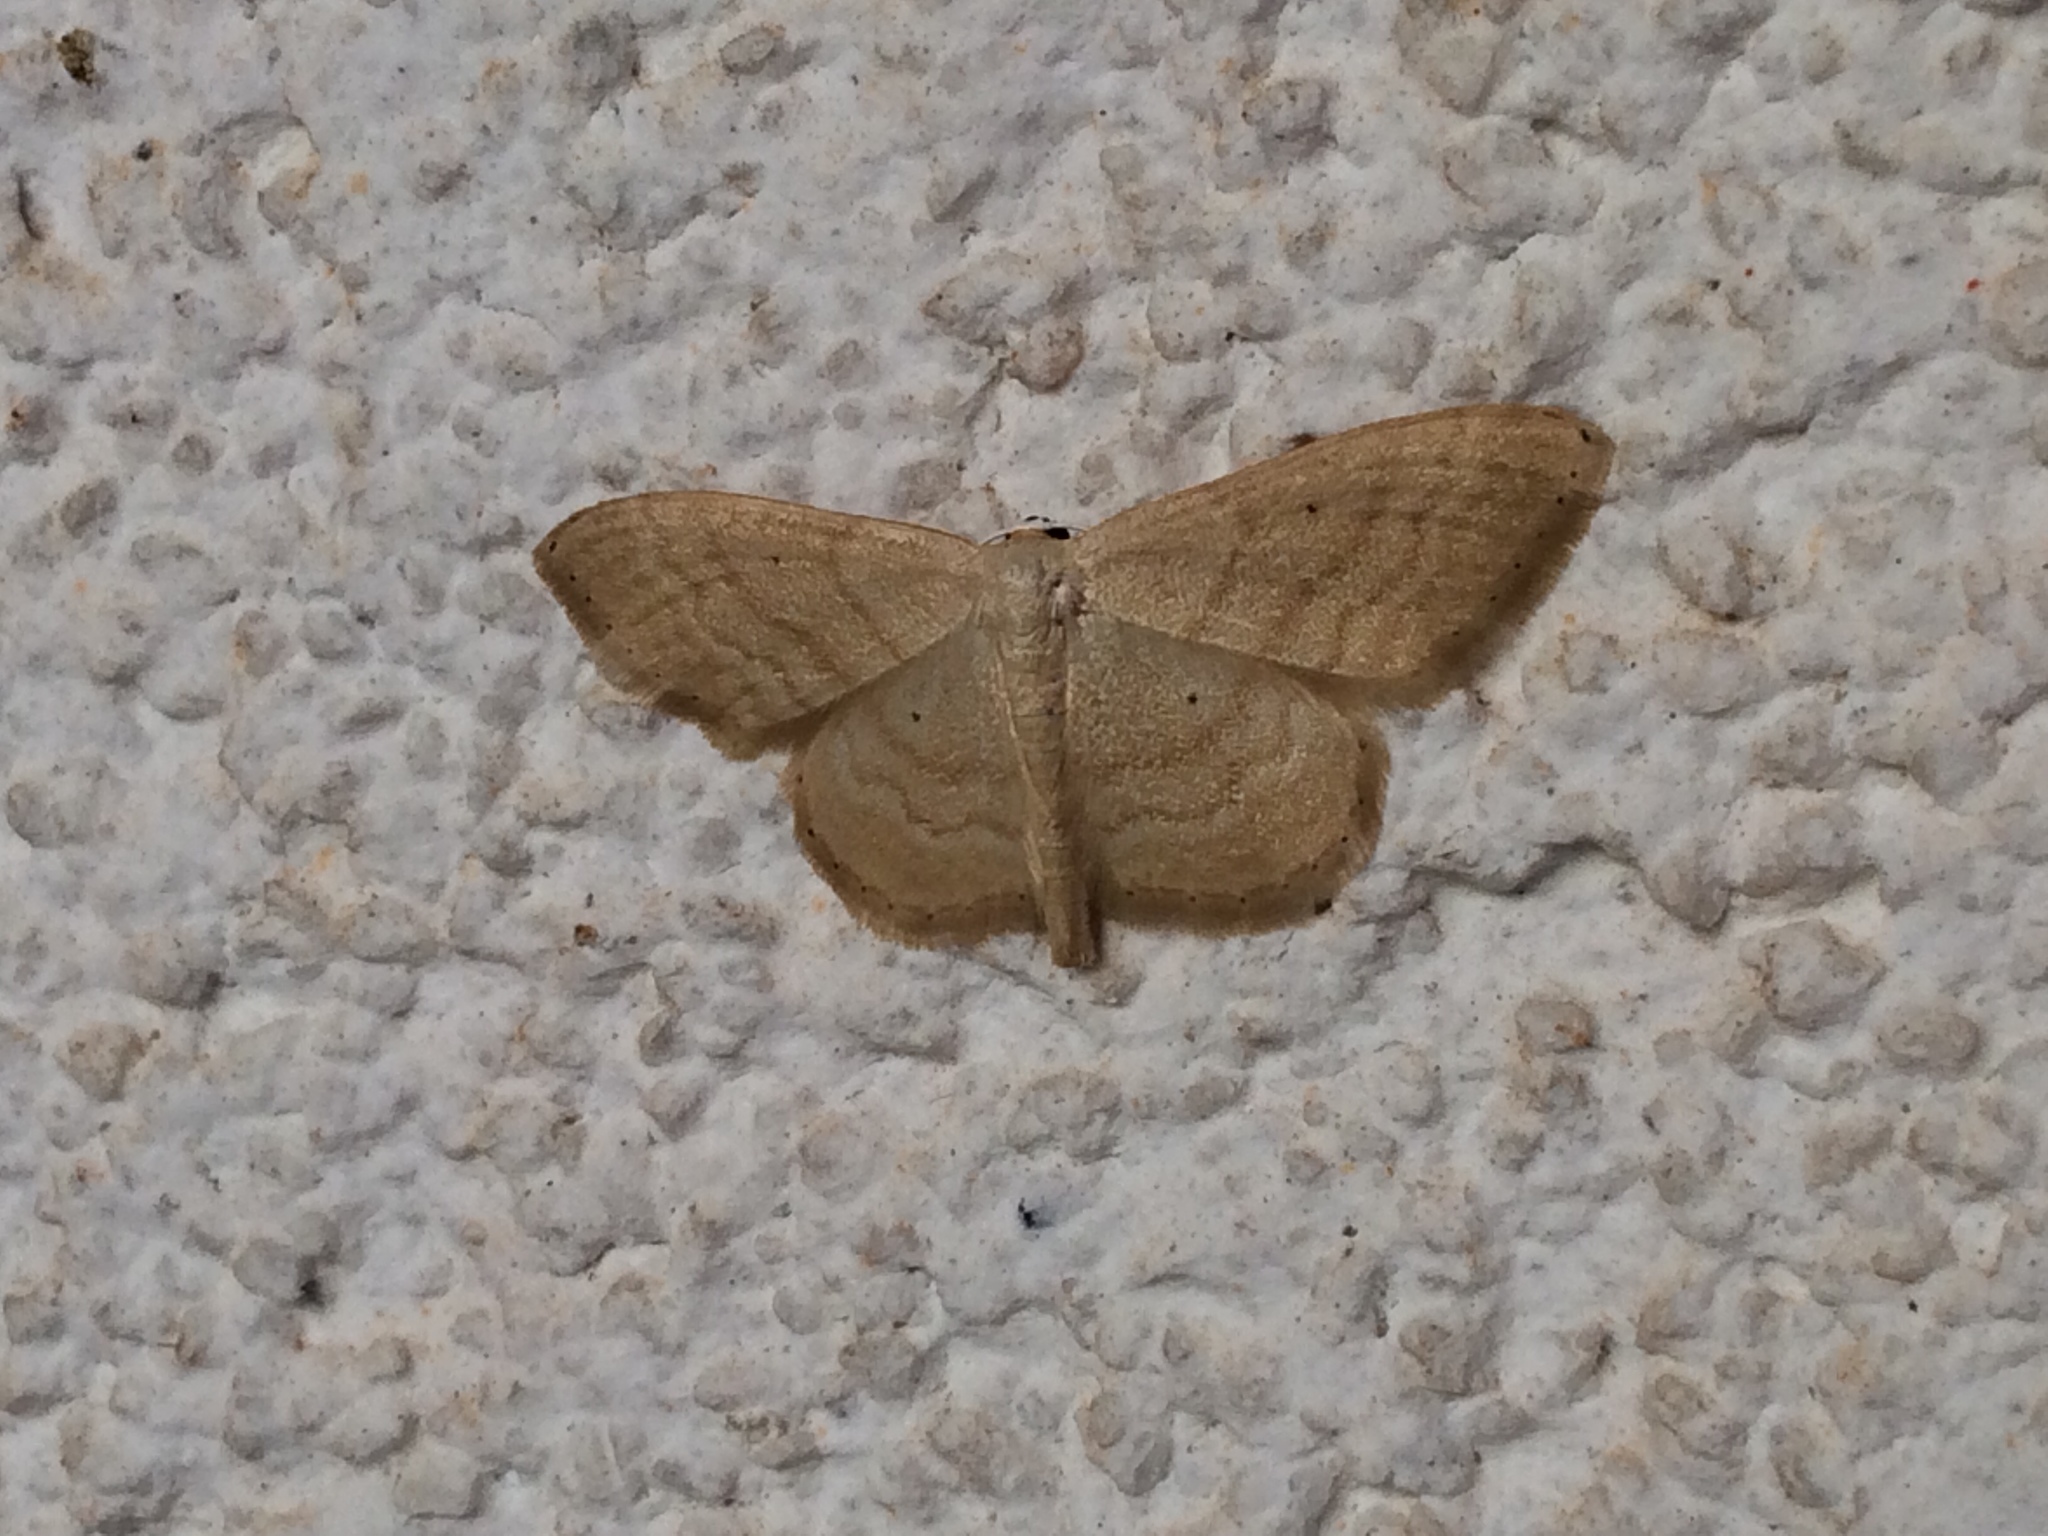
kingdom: Animalia
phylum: Arthropoda
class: Insecta
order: Lepidoptera
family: Geometridae
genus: Idaea
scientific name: Idaea consanguinaria
